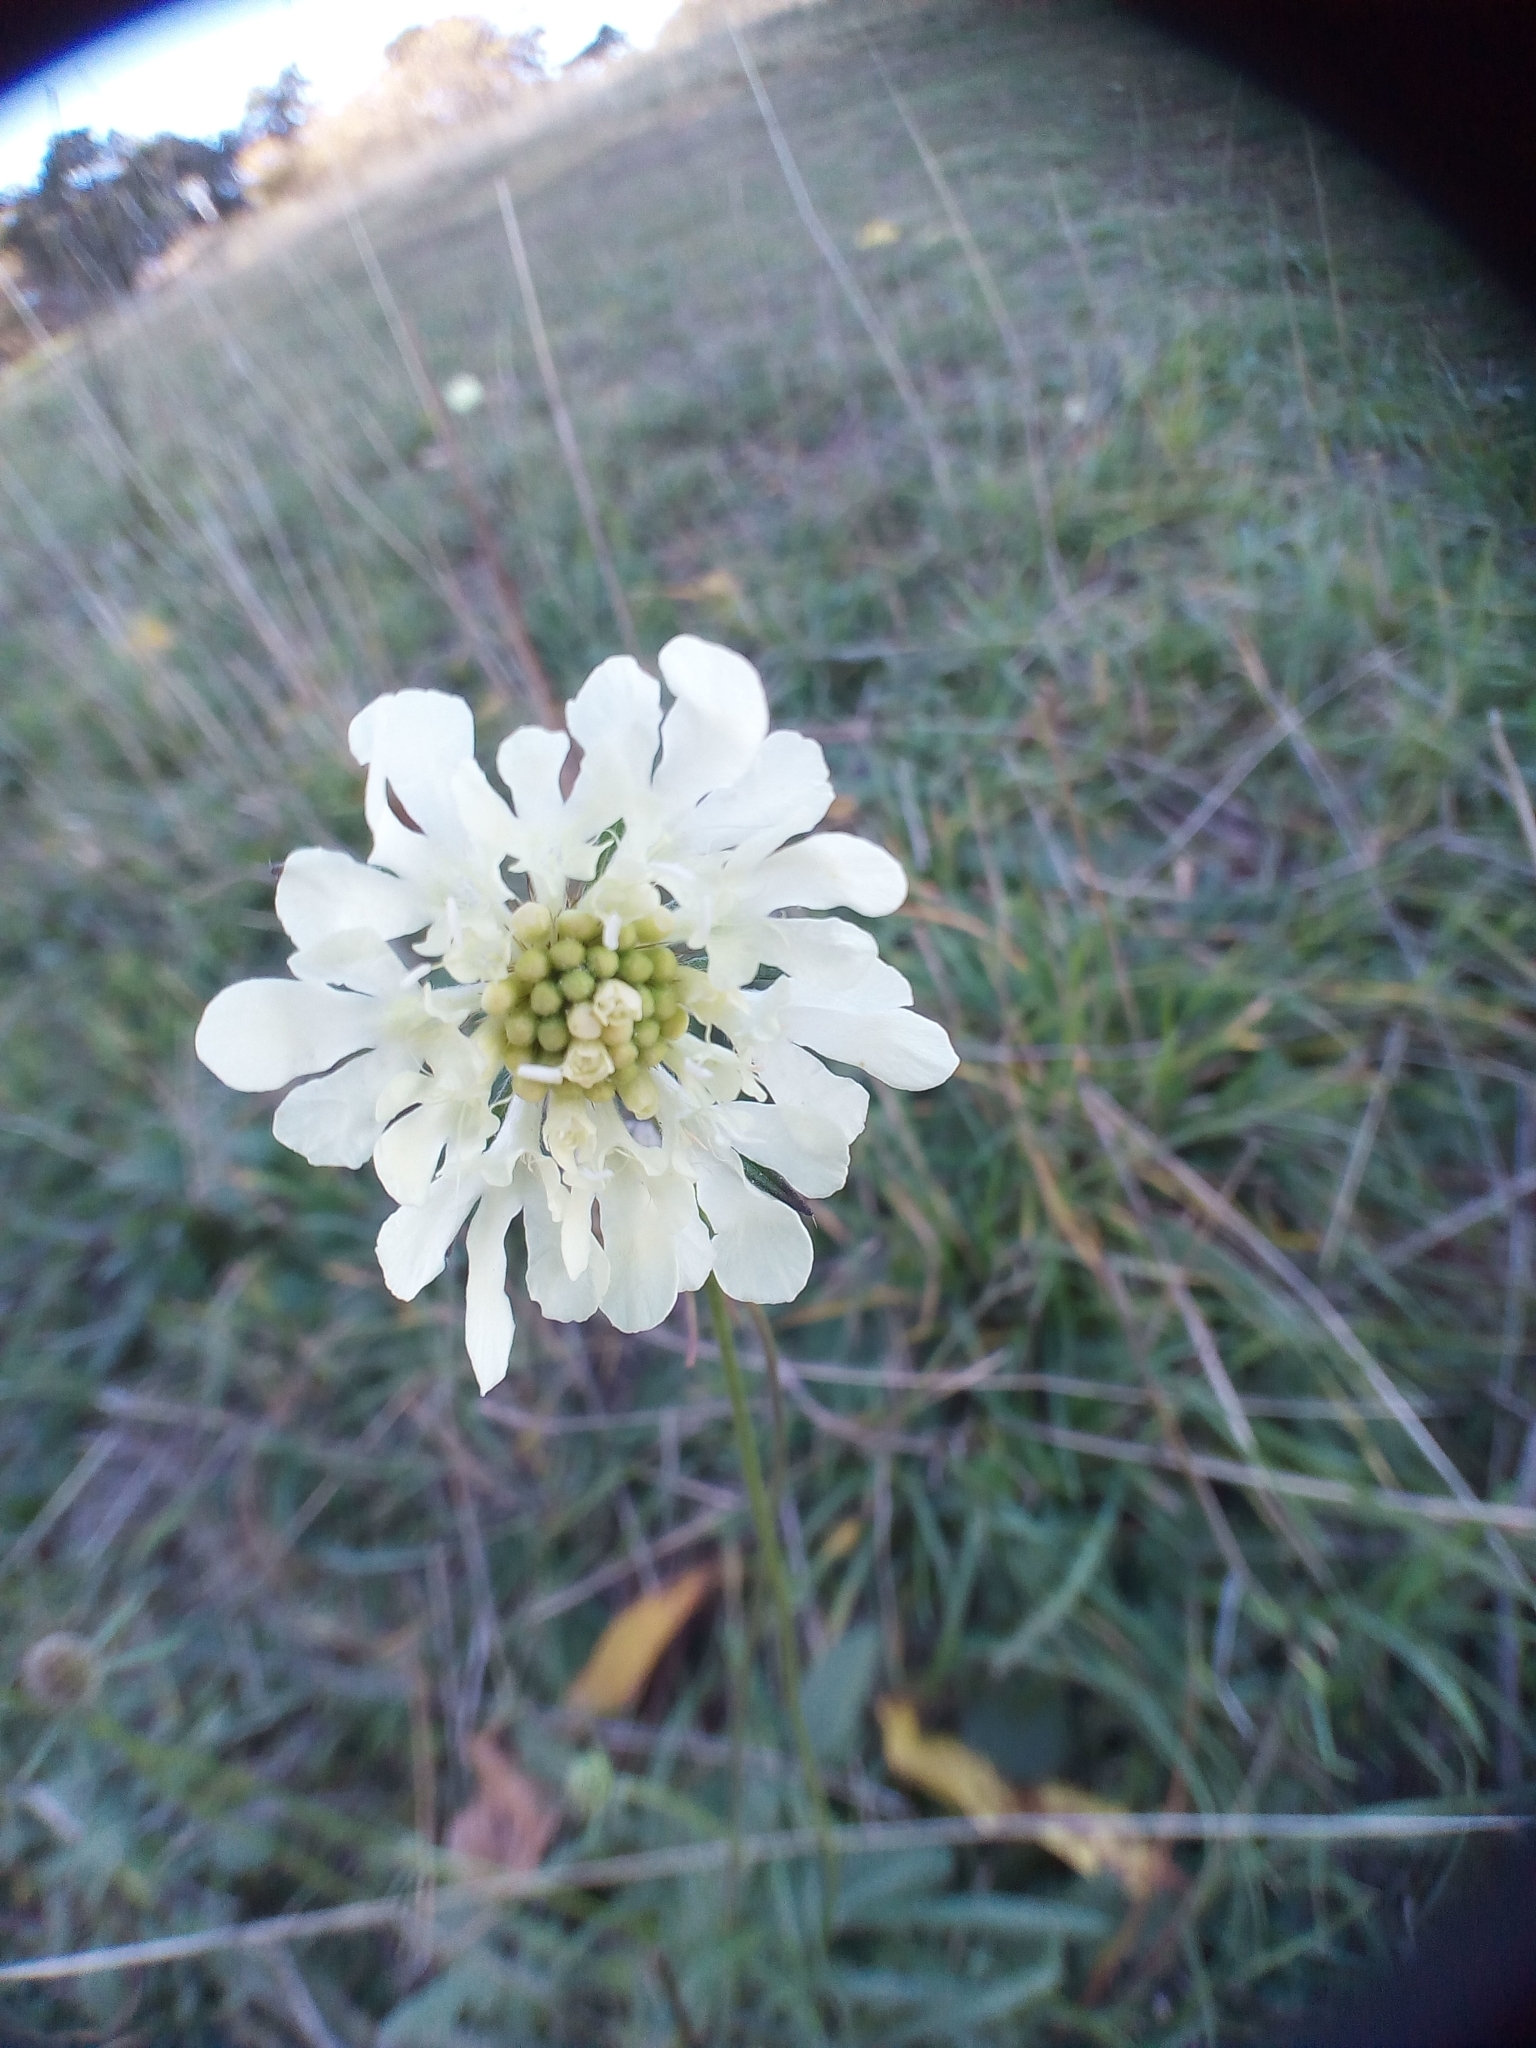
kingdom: Plantae
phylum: Tracheophyta
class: Magnoliopsida
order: Dipsacales
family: Caprifoliaceae
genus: Scabiosa
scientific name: Scabiosa ochroleuca
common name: Cream pincushions
